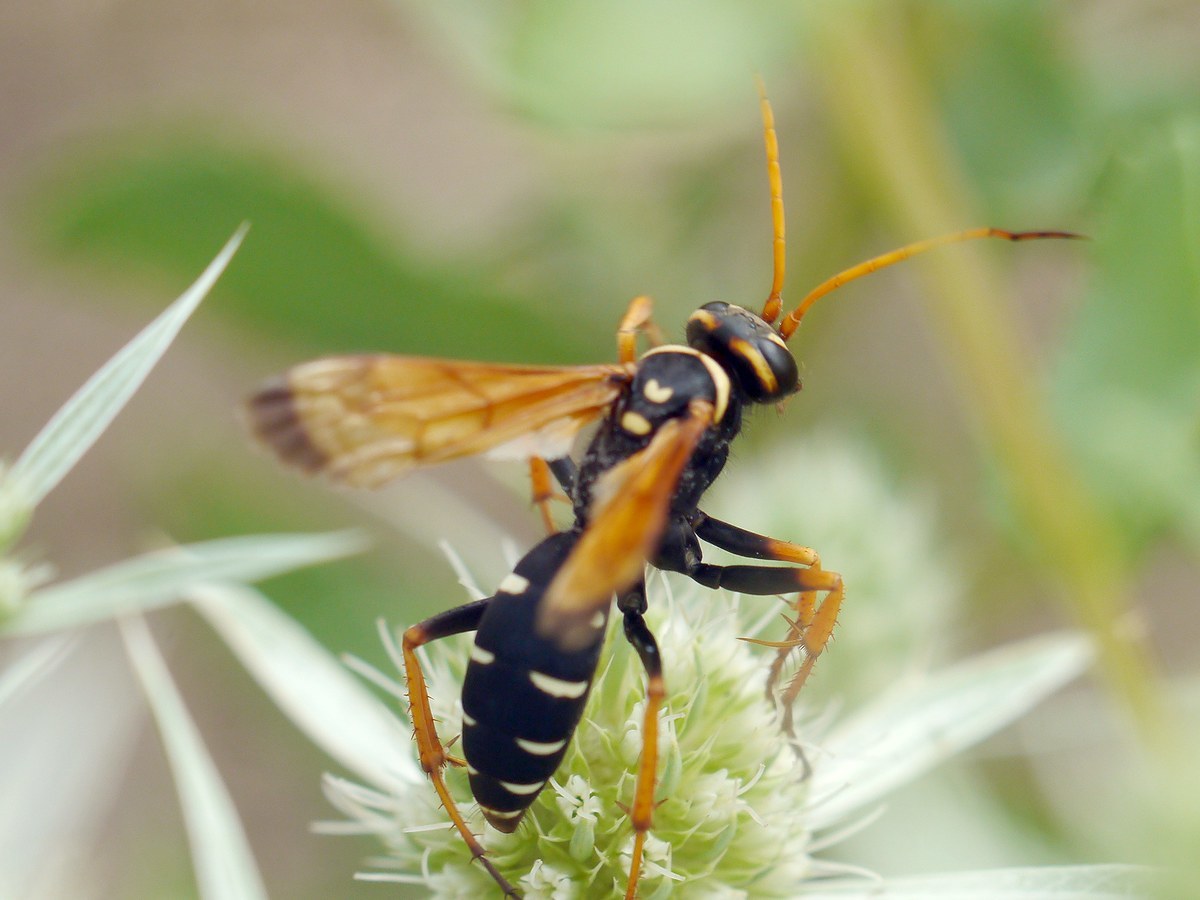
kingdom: Animalia
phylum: Arthropoda
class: Insecta
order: Hymenoptera
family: Pompilidae
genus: Parabatozonus
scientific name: Parabatozonus lacerticida
